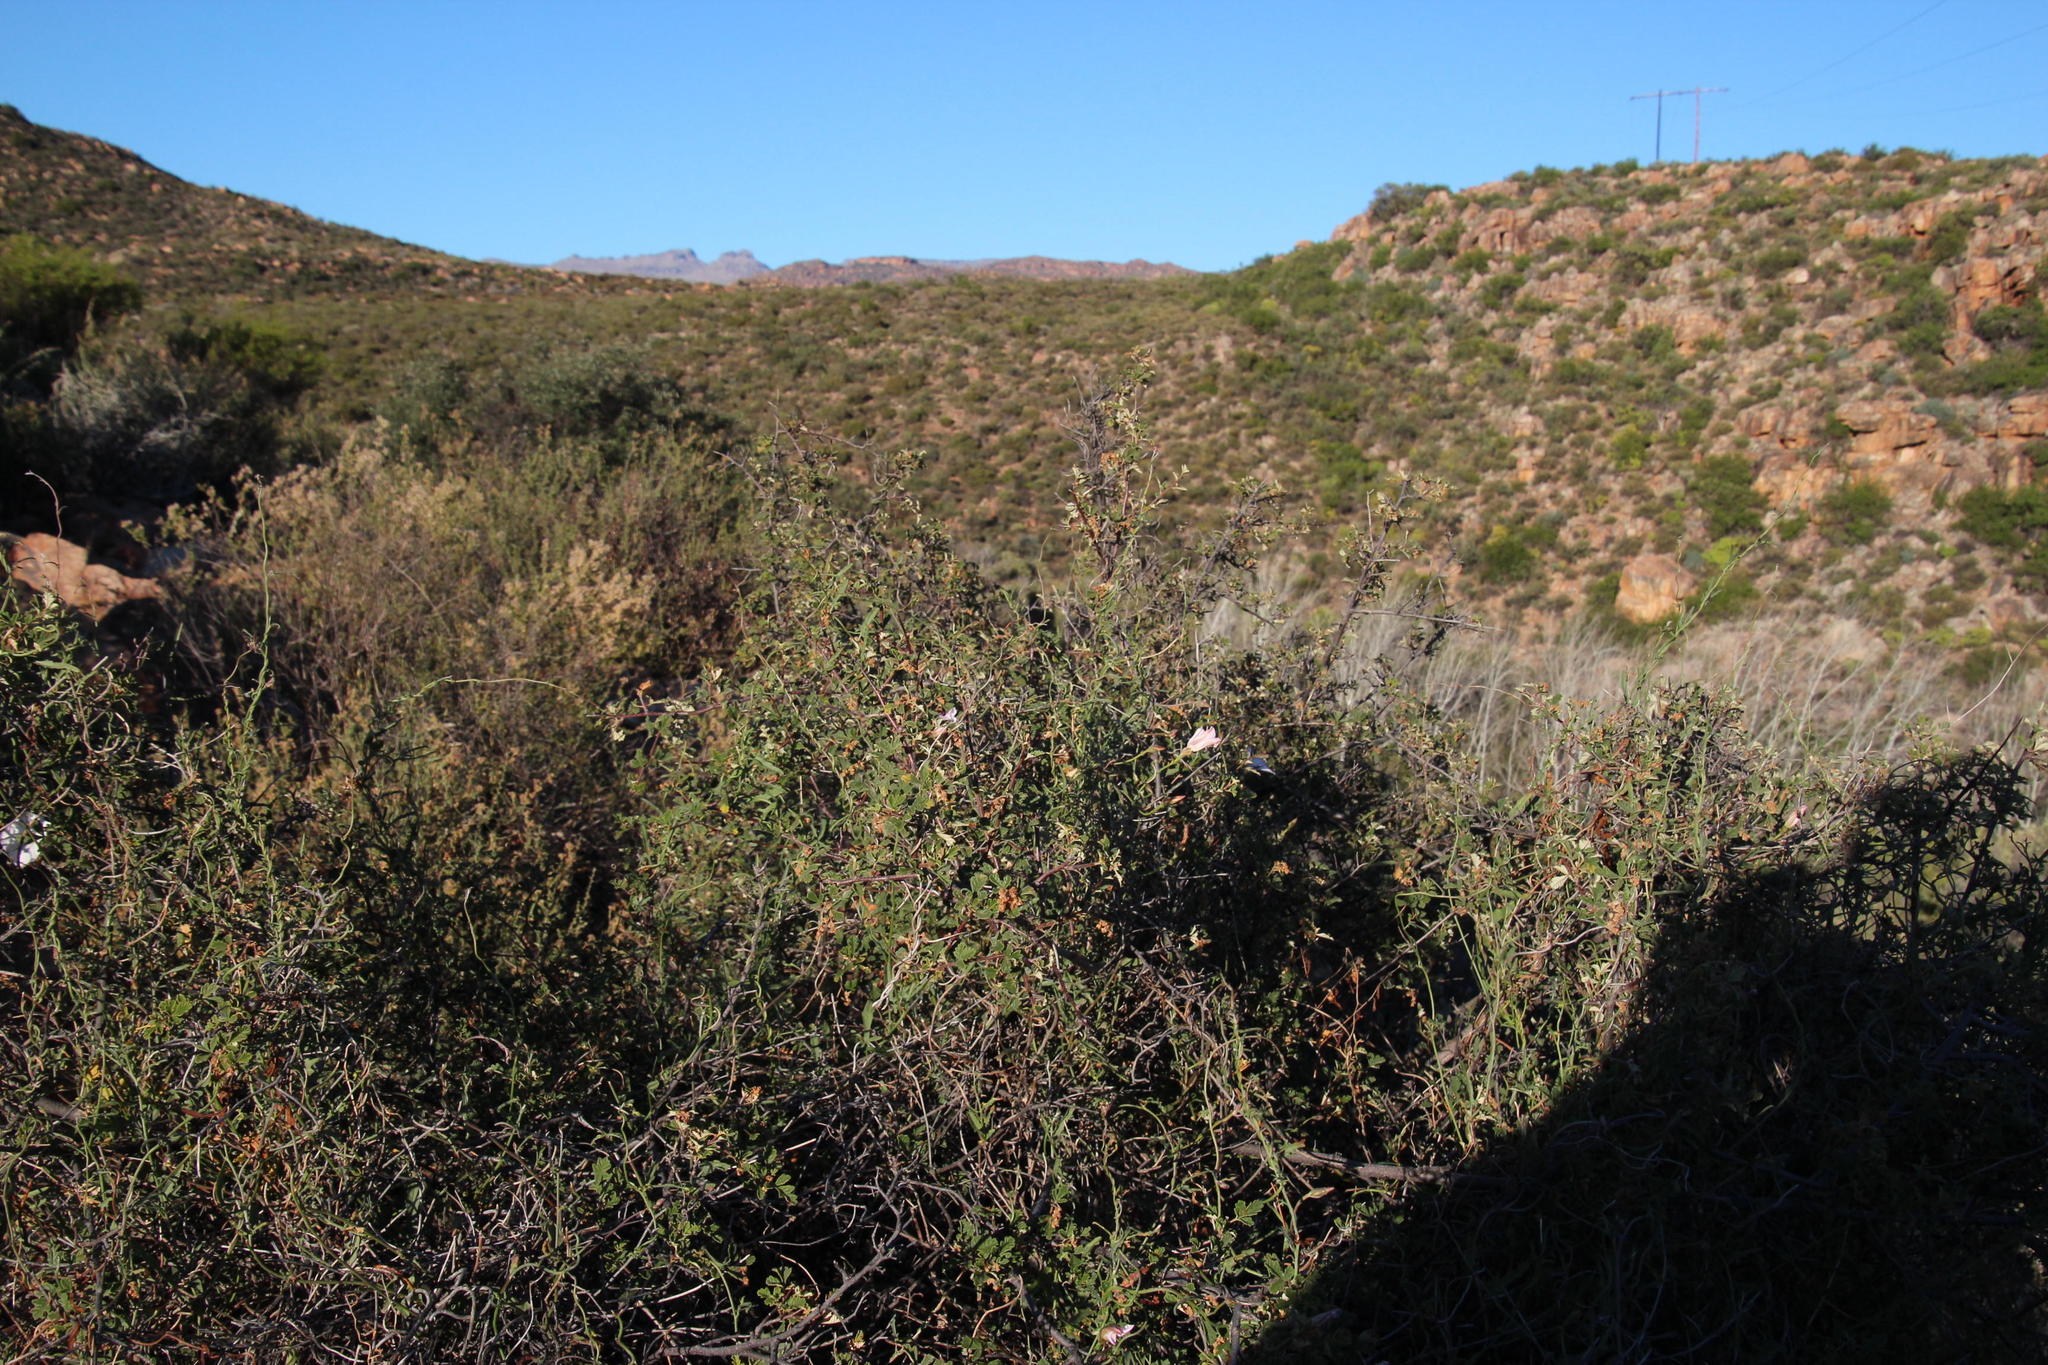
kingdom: Plantae
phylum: Tracheophyta
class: Magnoliopsida
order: Sapindales
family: Anacardiaceae
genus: Searsia
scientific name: Searsia dissecta
